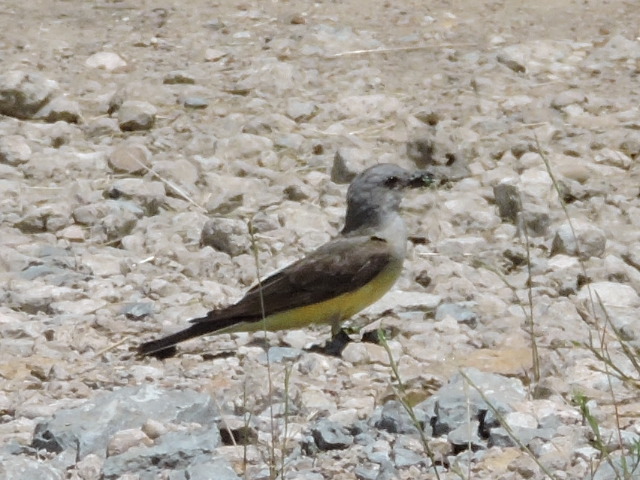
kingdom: Animalia
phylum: Chordata
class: Aves
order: Passeriformes
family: Tyrannidae
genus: Tyrannus
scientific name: Tyrannus verticalis
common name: Western kingbird
